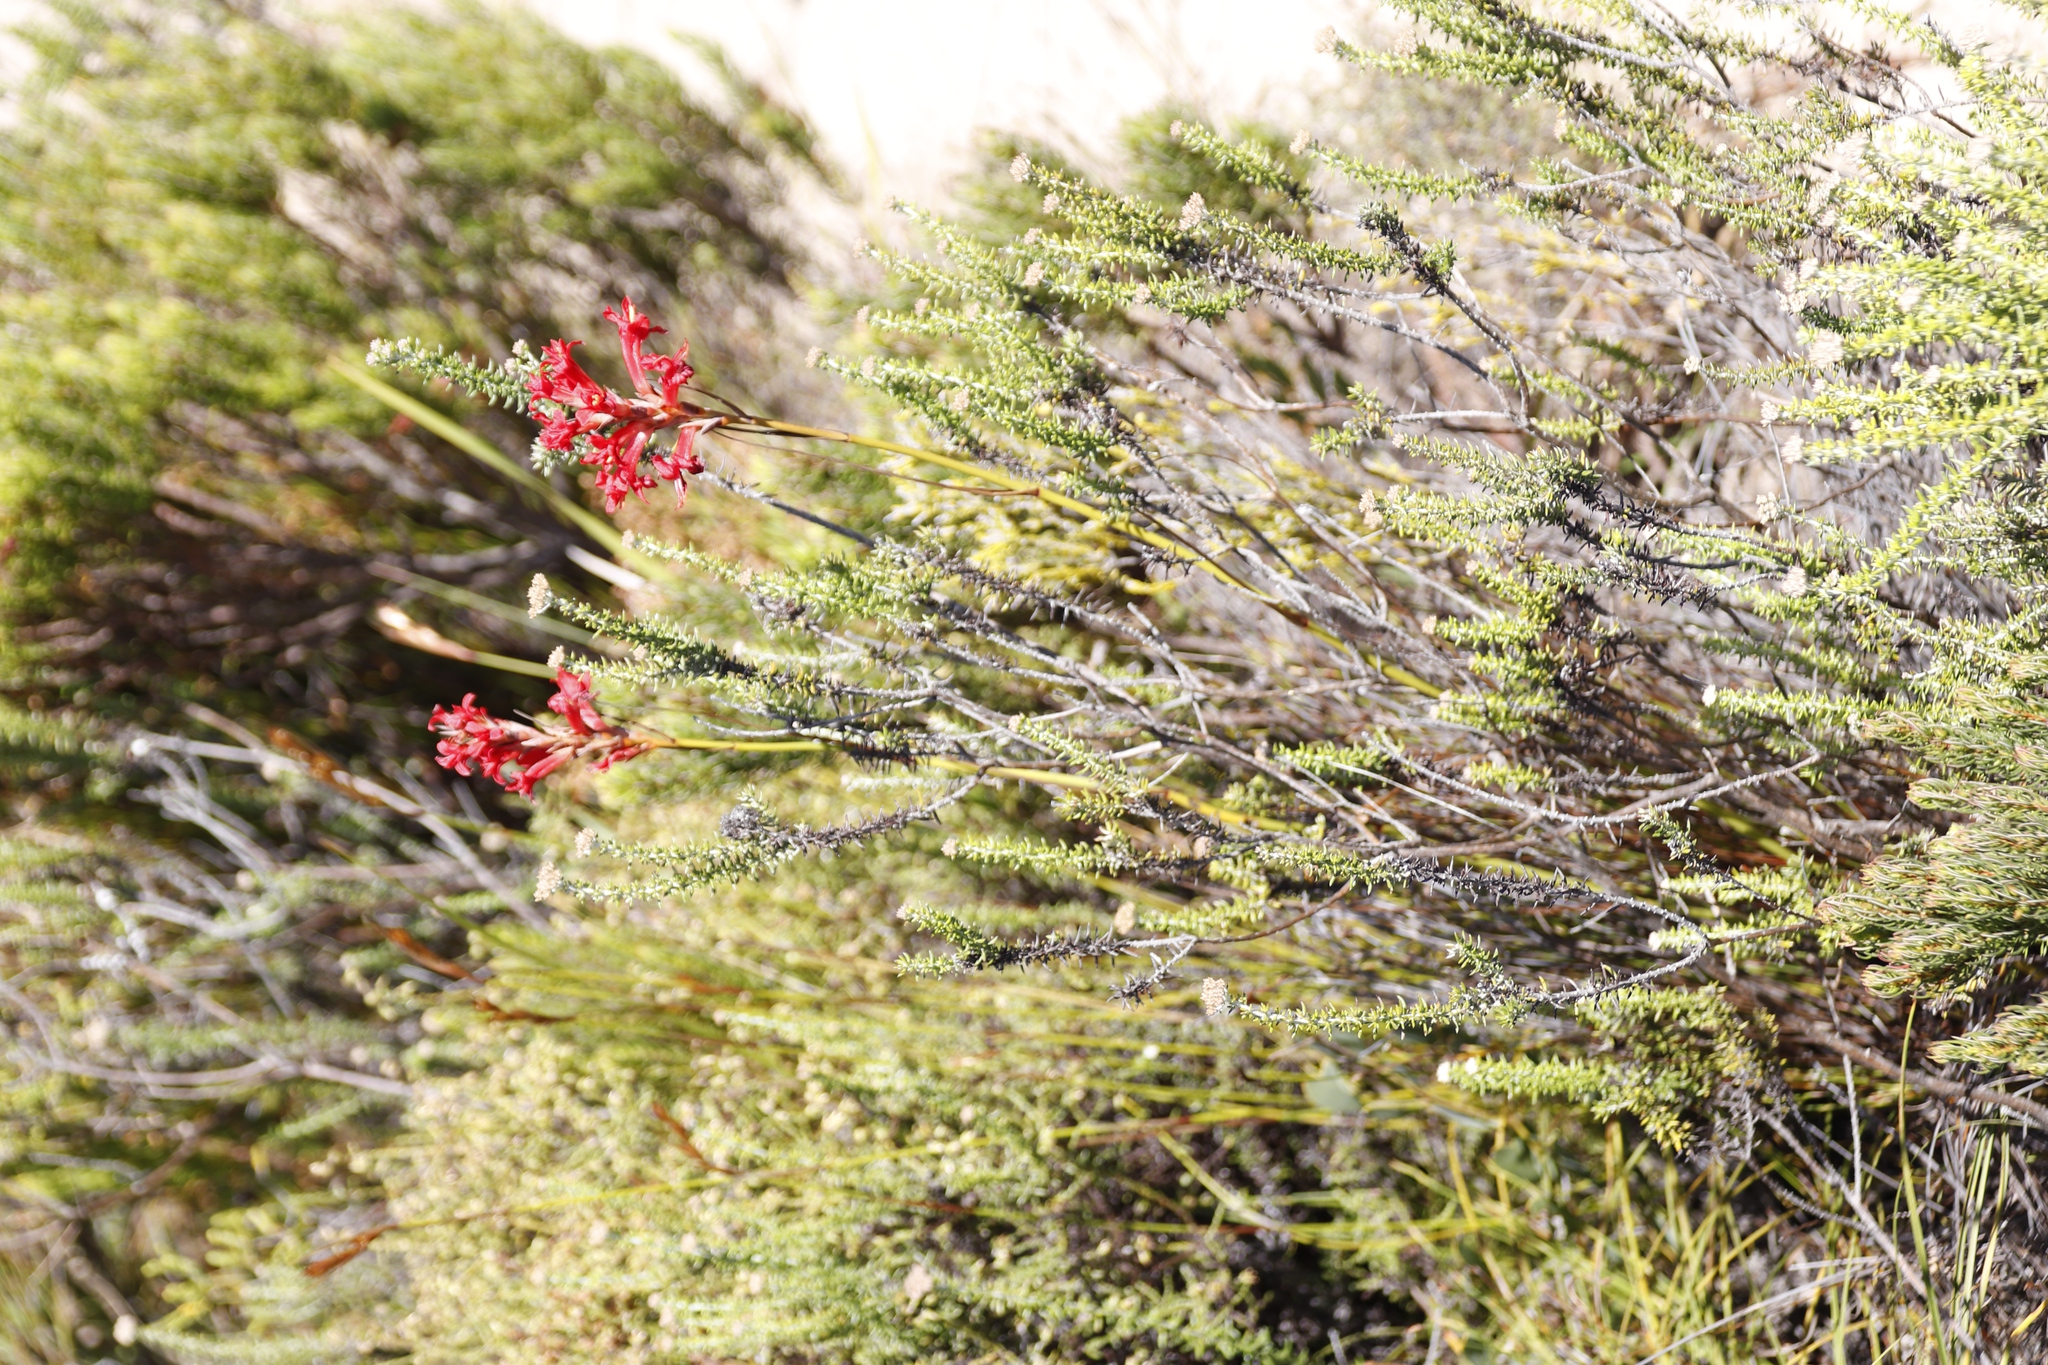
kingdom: Plantae
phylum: Tracheophyta
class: Liliopsida
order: Asparagales
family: Iridaceae
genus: Tritoniopsis
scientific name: Tritoniopsis triticea
